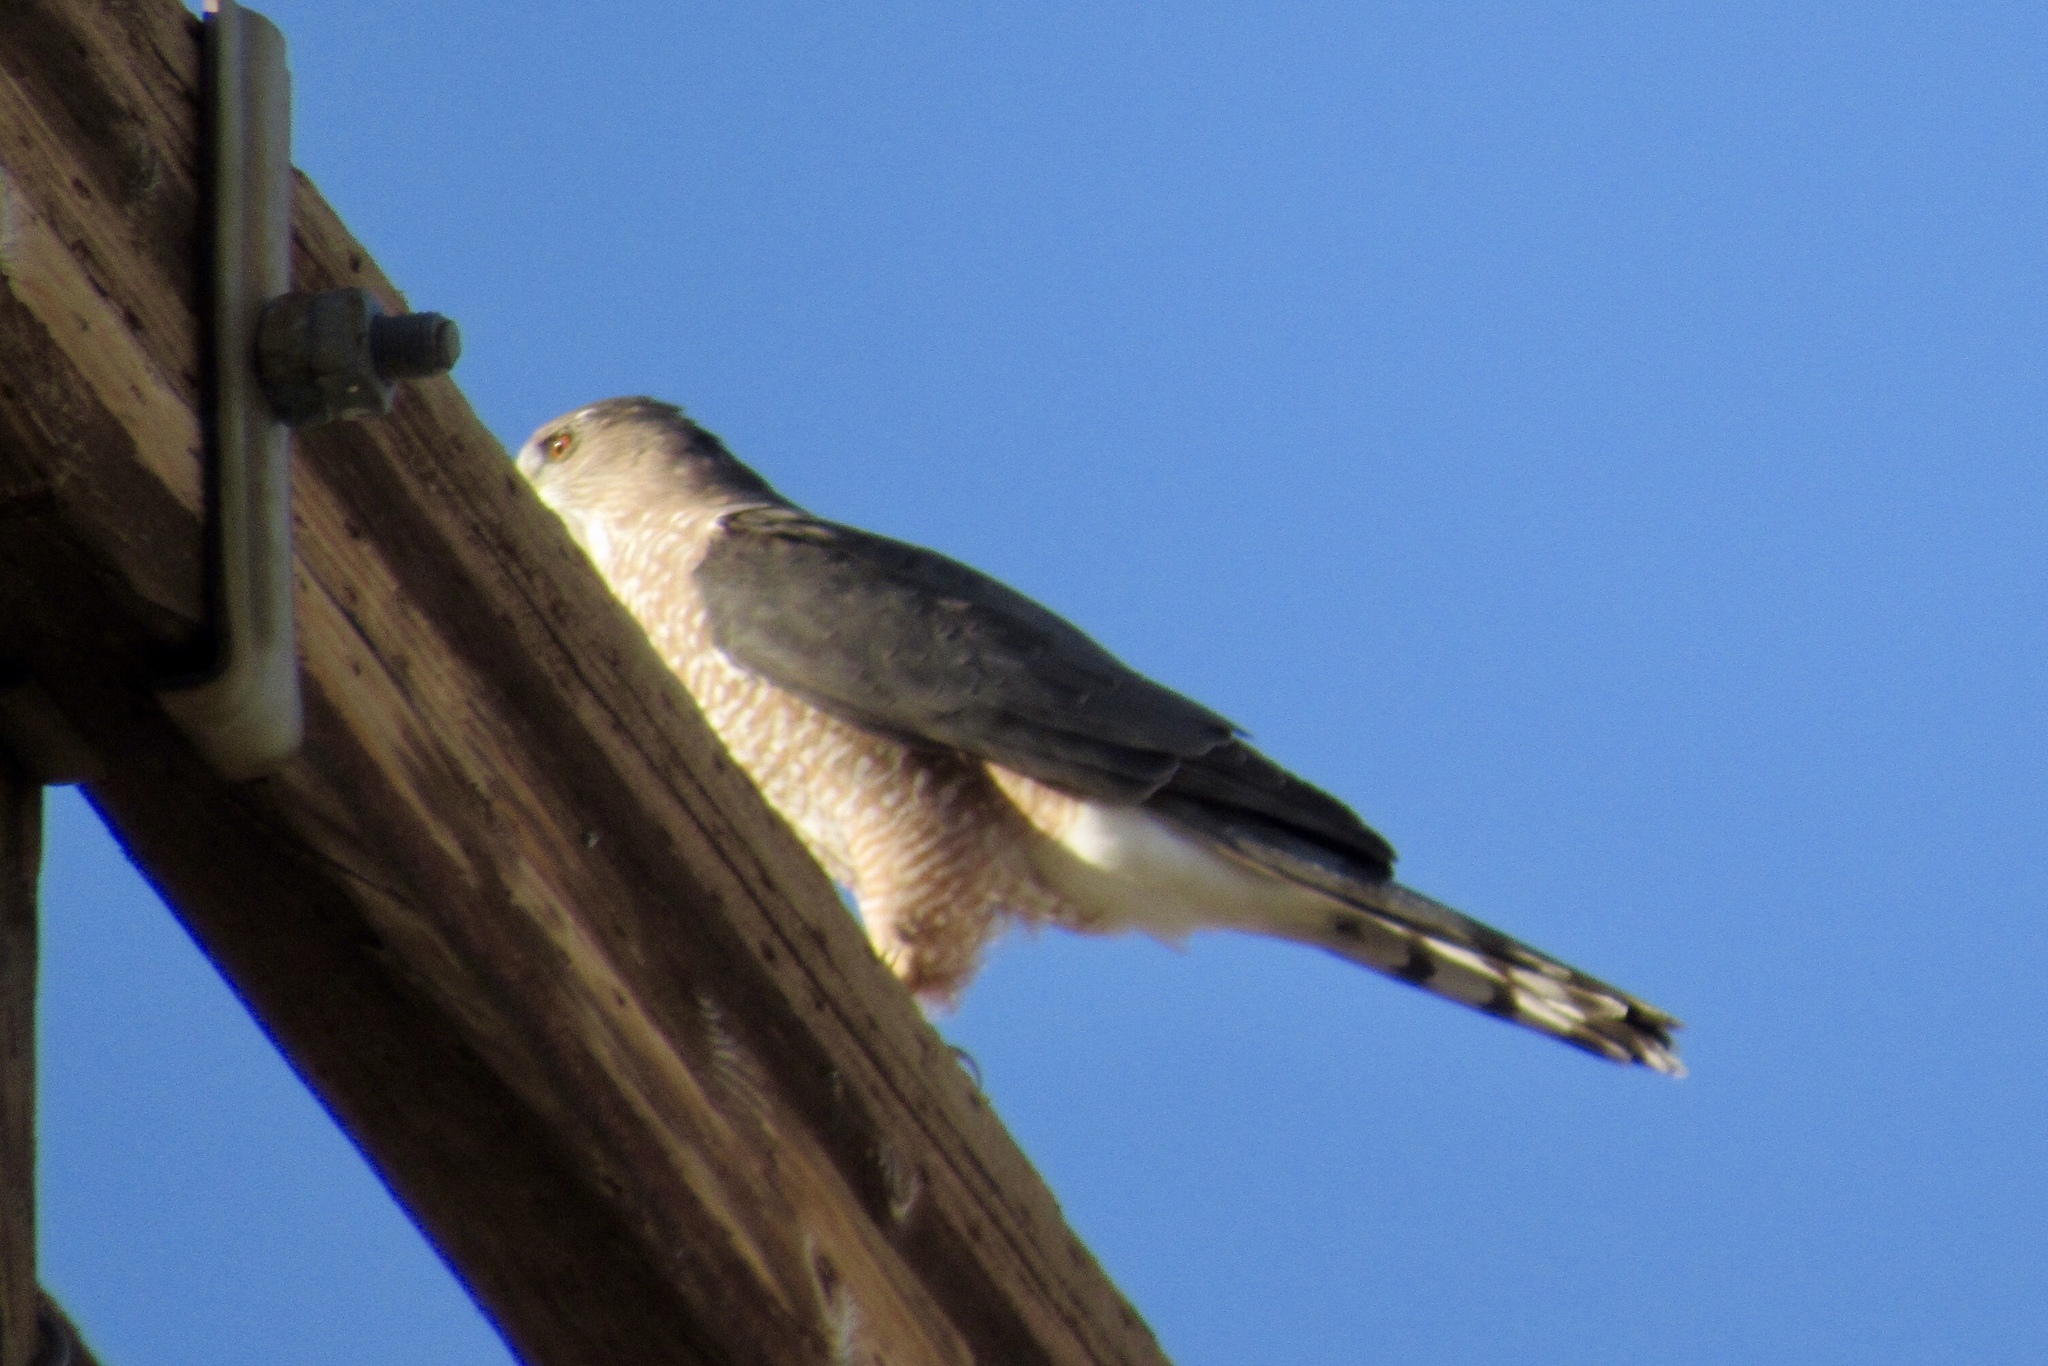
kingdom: Animalia
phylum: Chordata
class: Aves
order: Accipitriformes
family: Accipitridae
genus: Accipiter
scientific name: Accipiter cooperii
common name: Cooper's hawk
